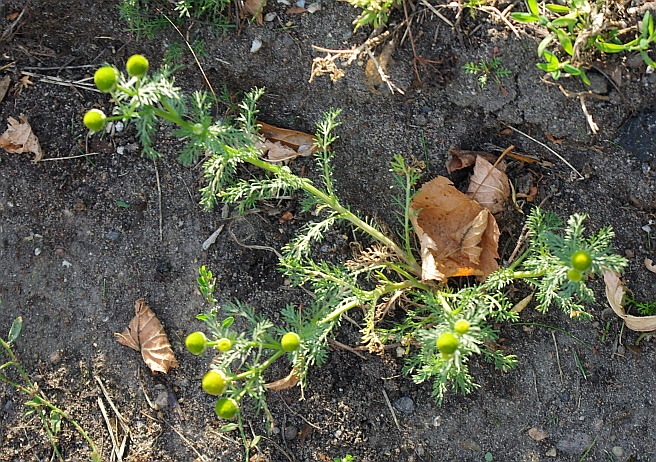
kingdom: Plantae
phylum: Tracheophyta
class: Magnoliopsida
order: Asterales
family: Asteraceae
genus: Matricaria
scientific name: Matricaria discoidea
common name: Disc mayweed
